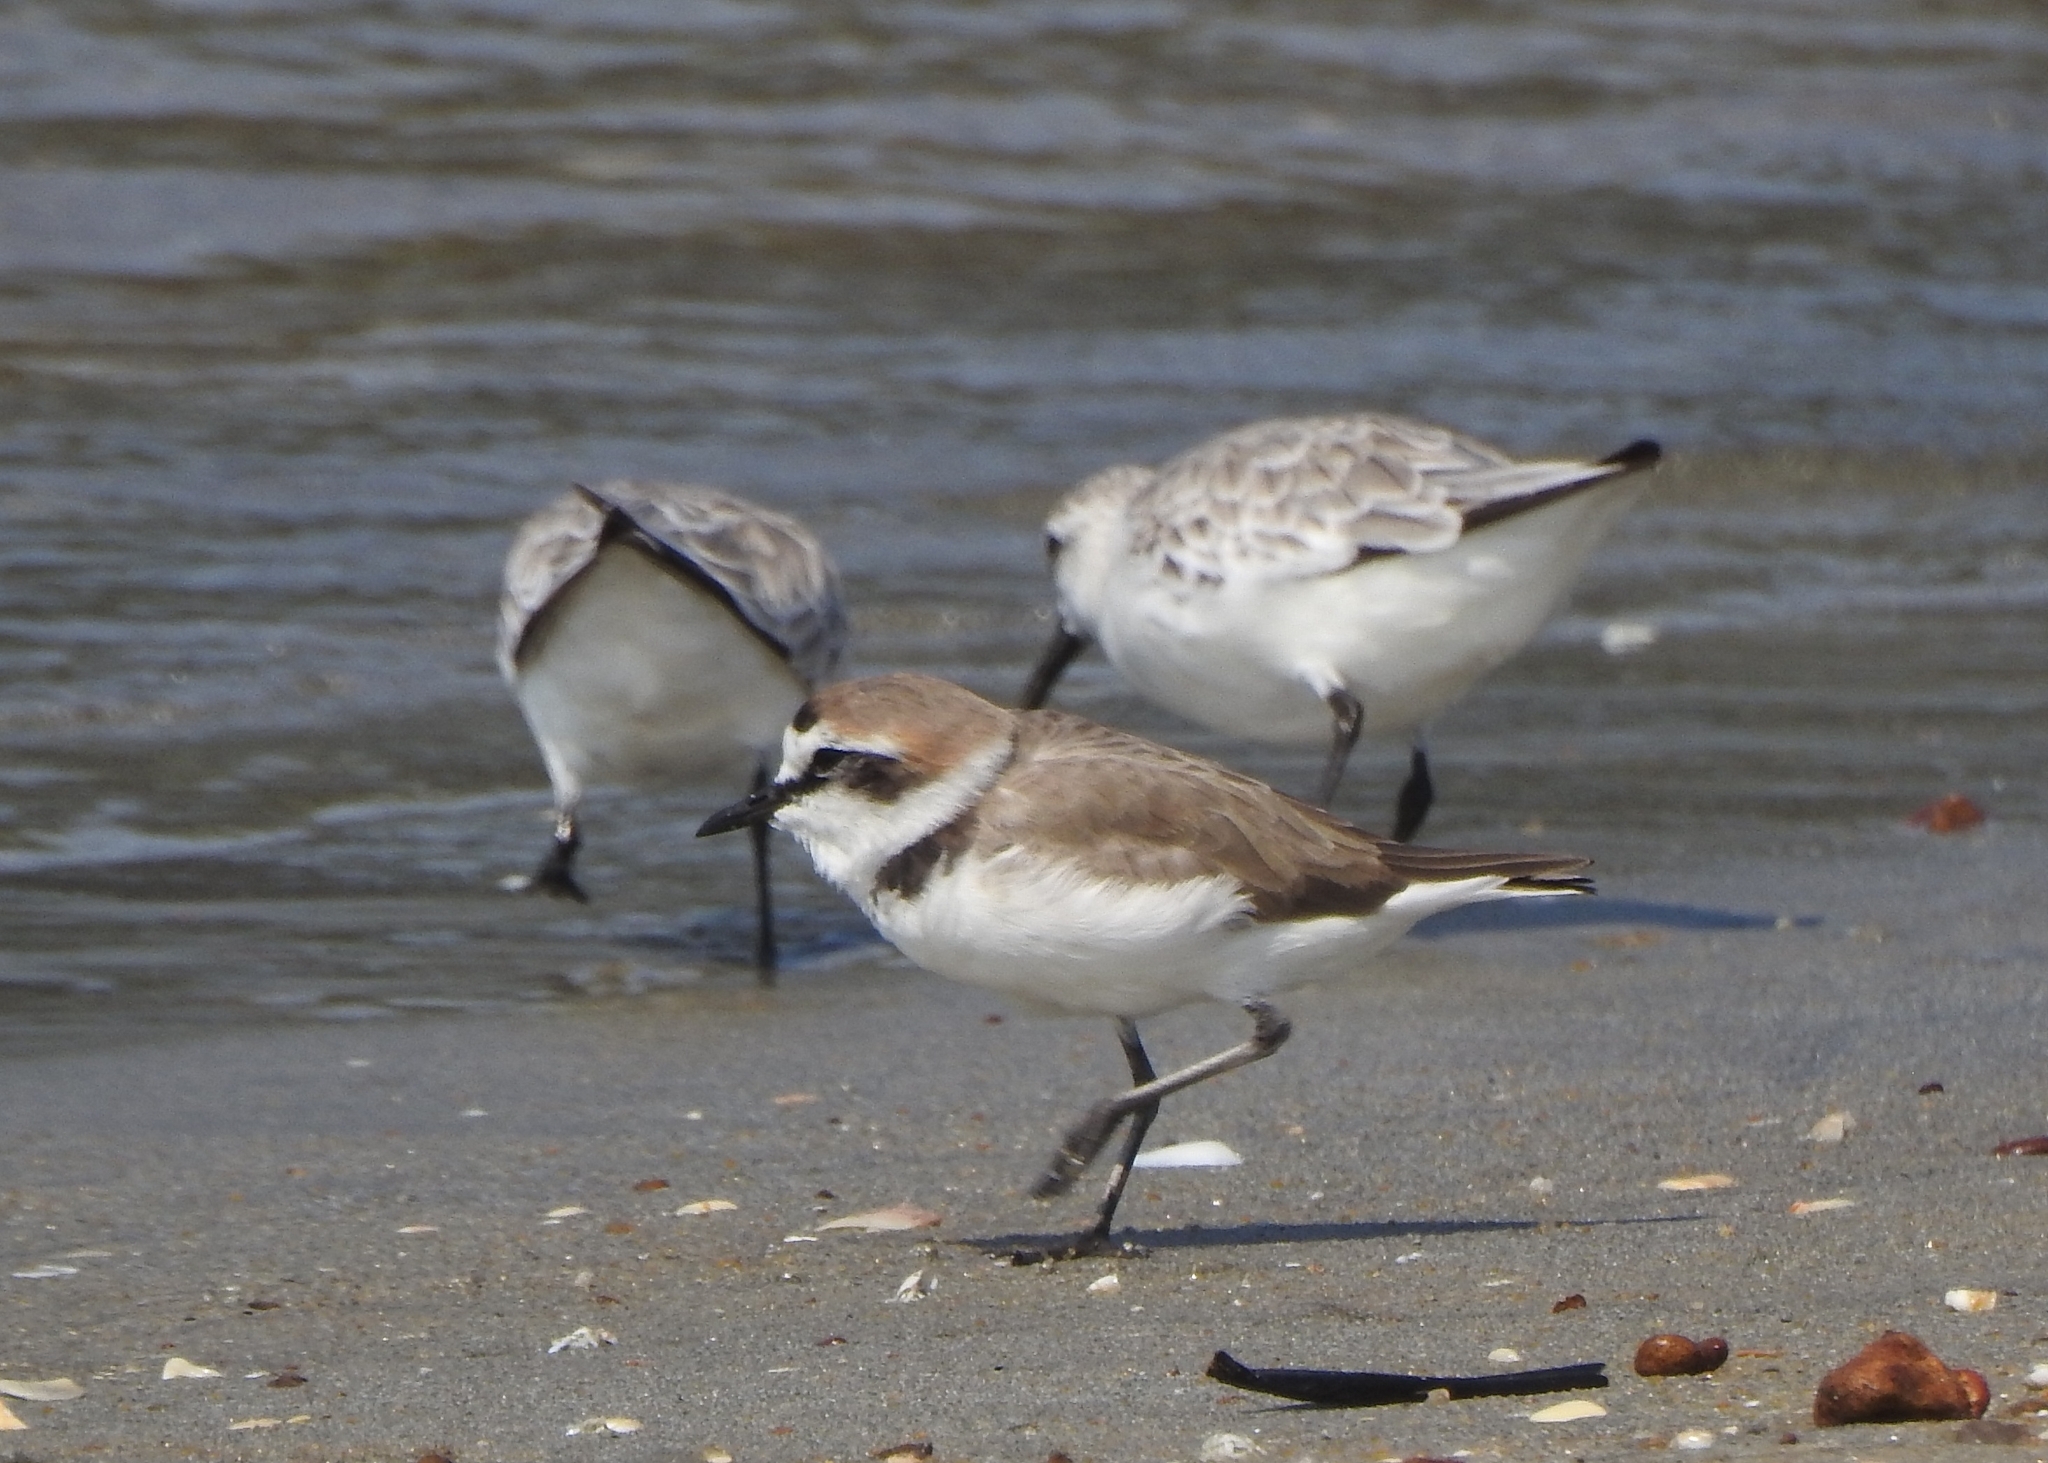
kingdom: Animalia
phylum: Chordata
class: Aves
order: Charadriiformes
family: Scolopacidae
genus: Calidris
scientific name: Calidris alba
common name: Sanderling
